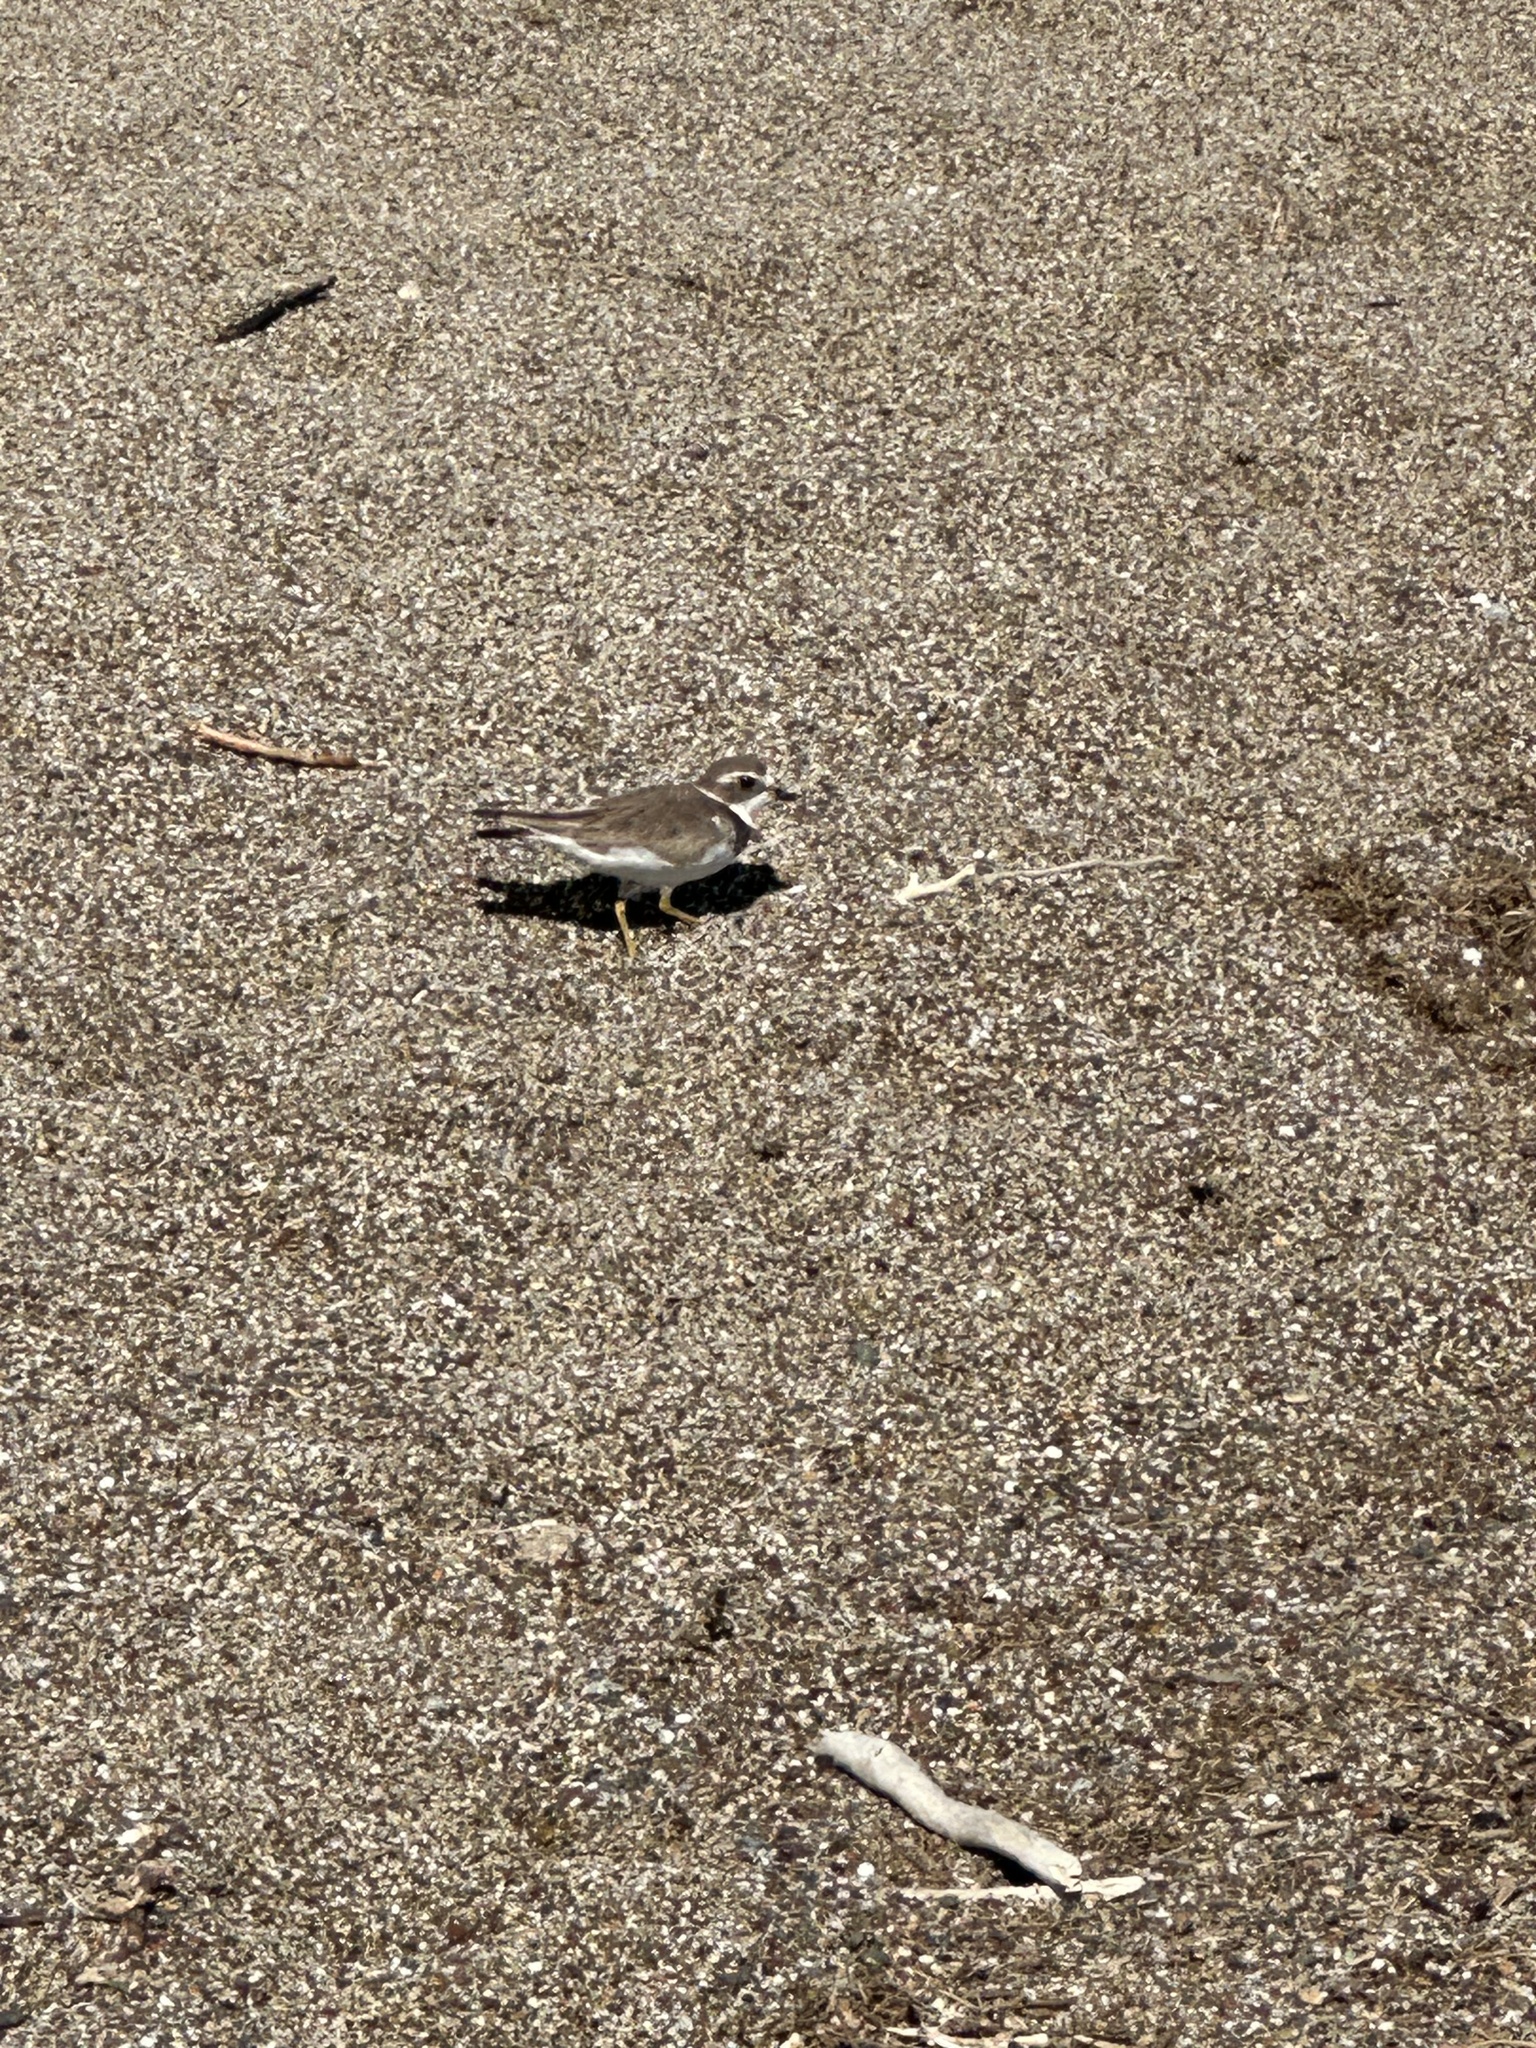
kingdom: Animalia
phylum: Chordata
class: Aves
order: Charadriiformes
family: Charadriidae
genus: Charadrius
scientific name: Charadrius semipalmatus
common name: Semipalmated plover
